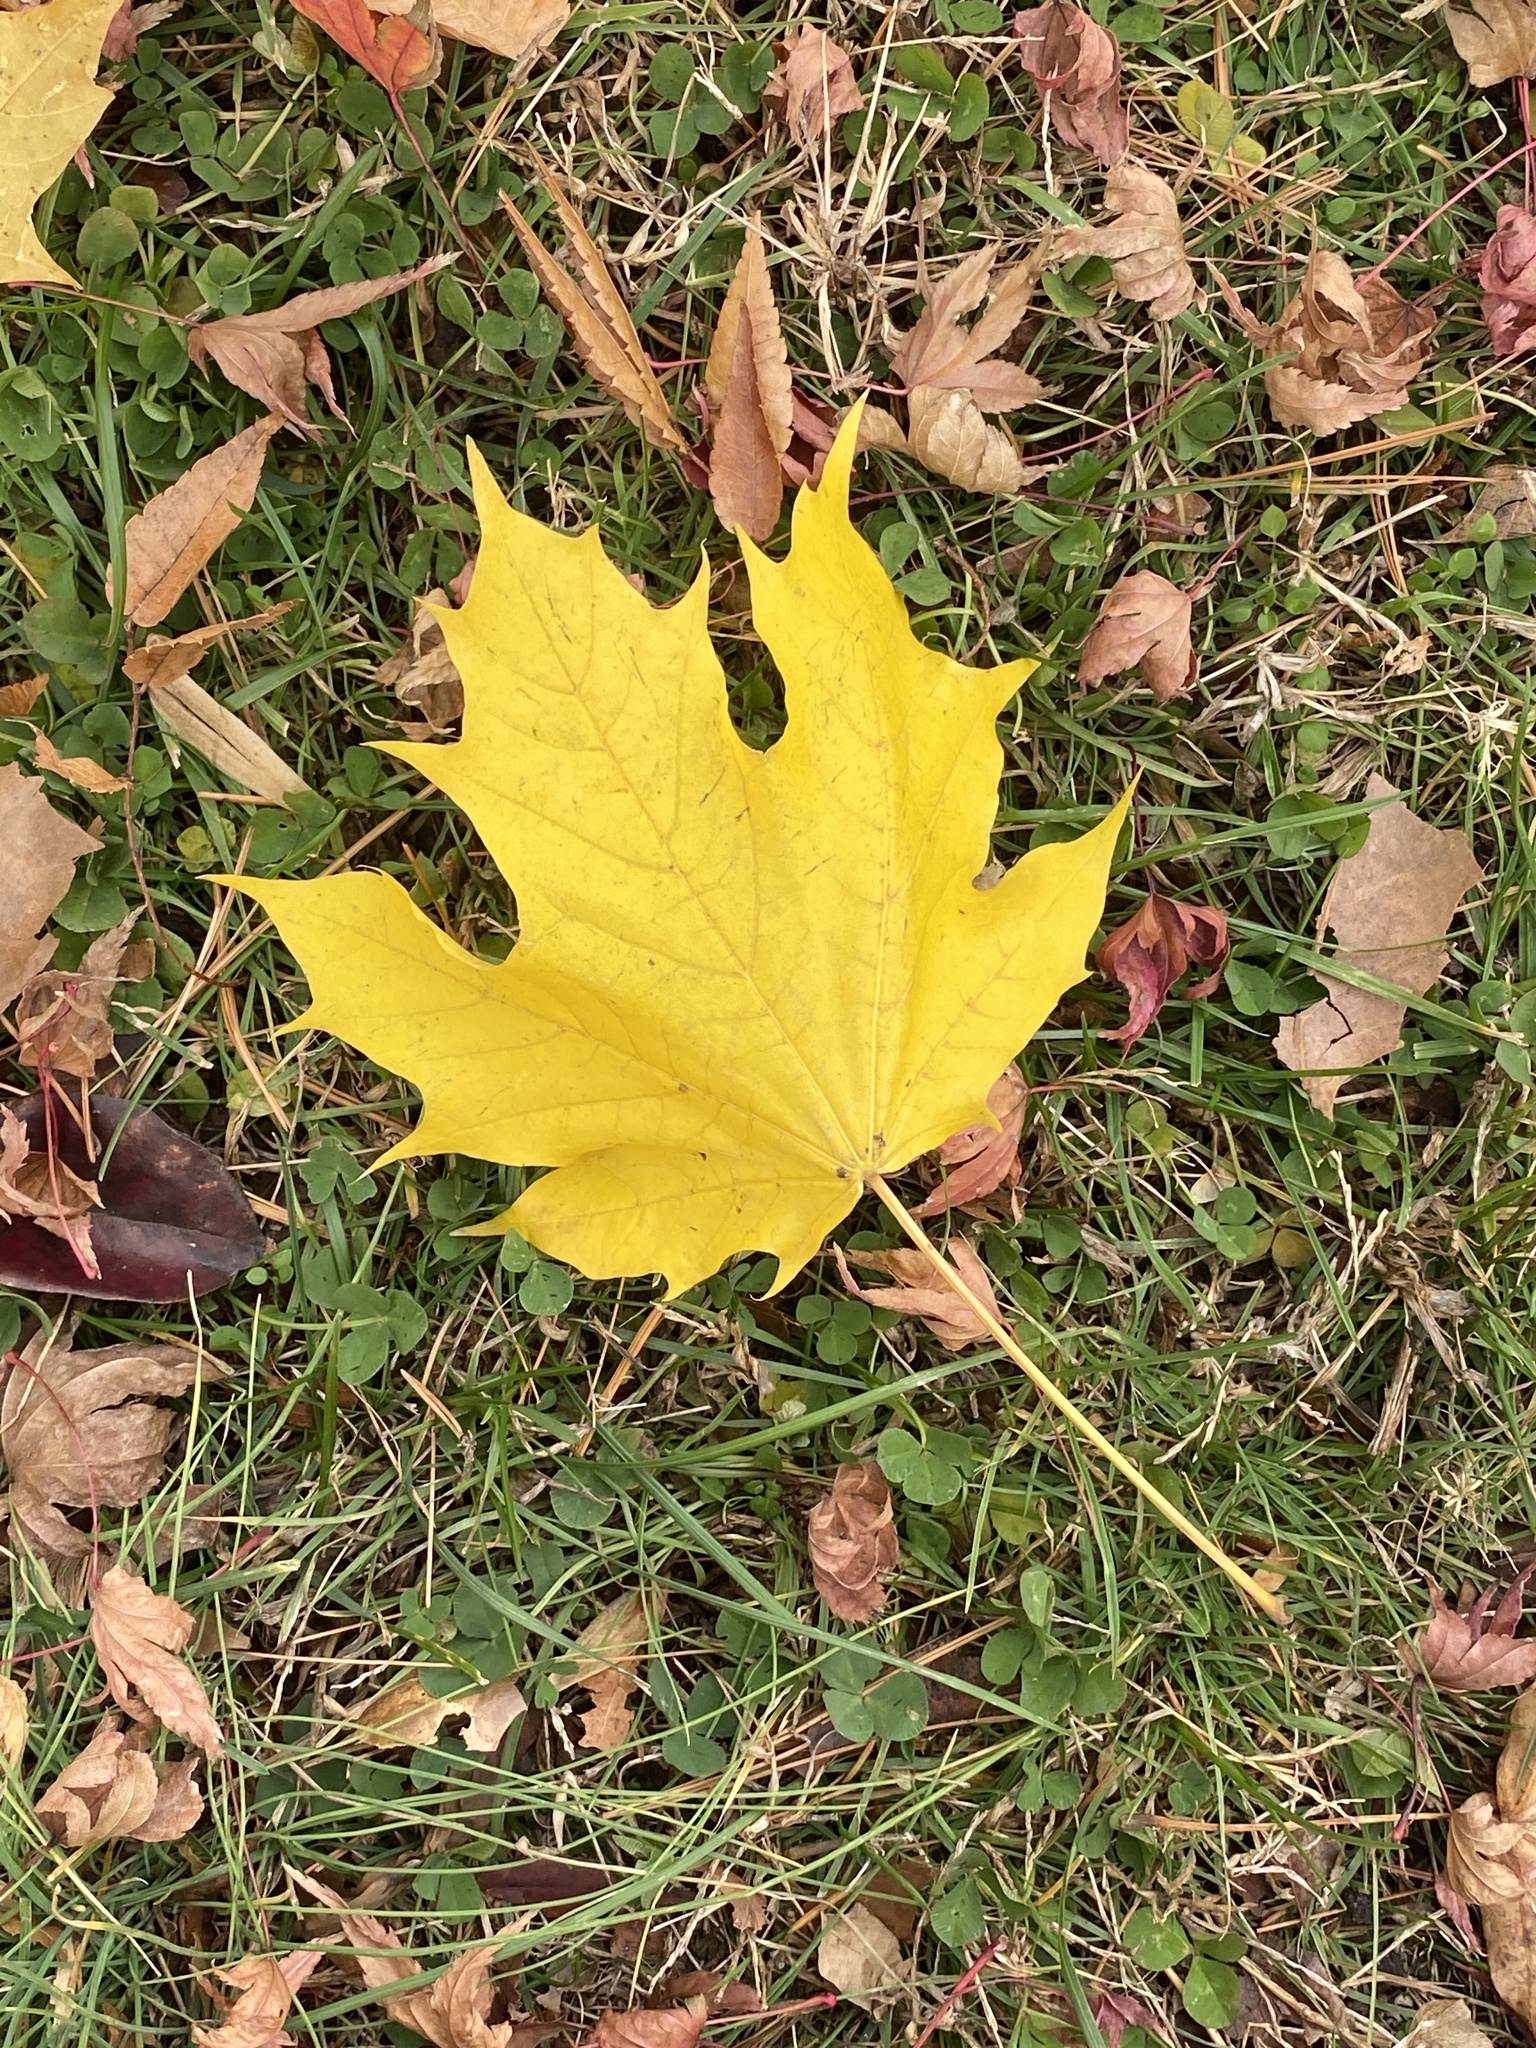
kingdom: Plantae
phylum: Tracheophyta
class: Magnoliopsida
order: Sapindales
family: Sapindaceae
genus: Acer
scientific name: Acer platanoides
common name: Norway maple
